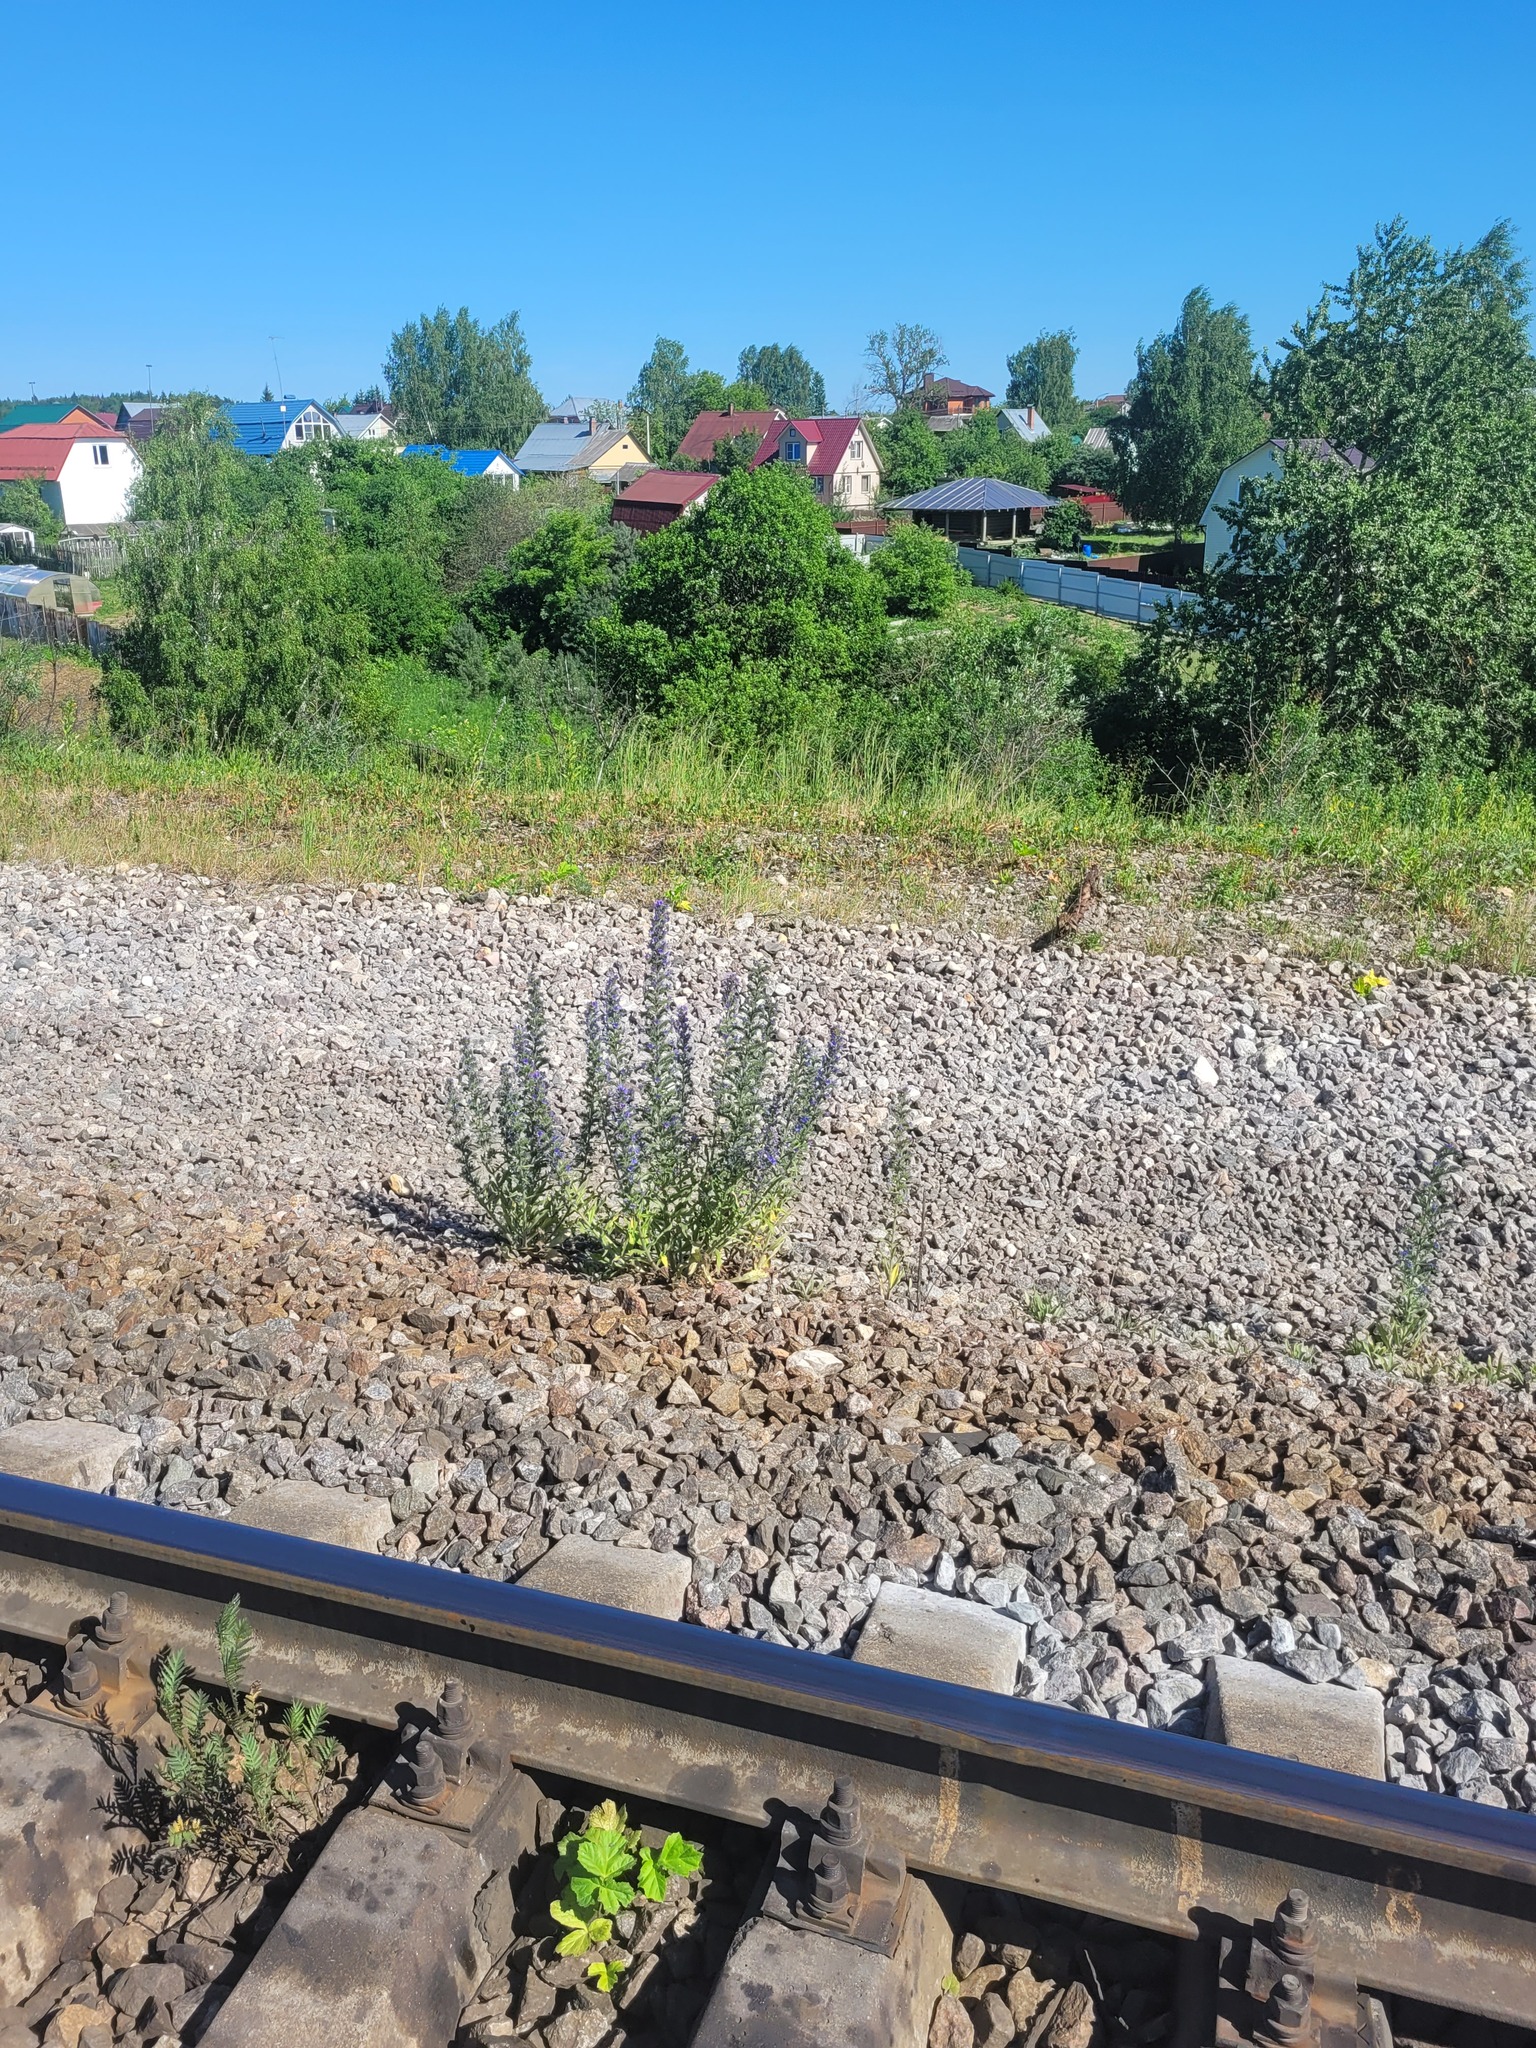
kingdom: Plantae
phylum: Tracheophyta
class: Magnoliopsida
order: Boraginales
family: Boraginaceae
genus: Echium
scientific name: Echium vulgare
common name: Common viper's bugloss
